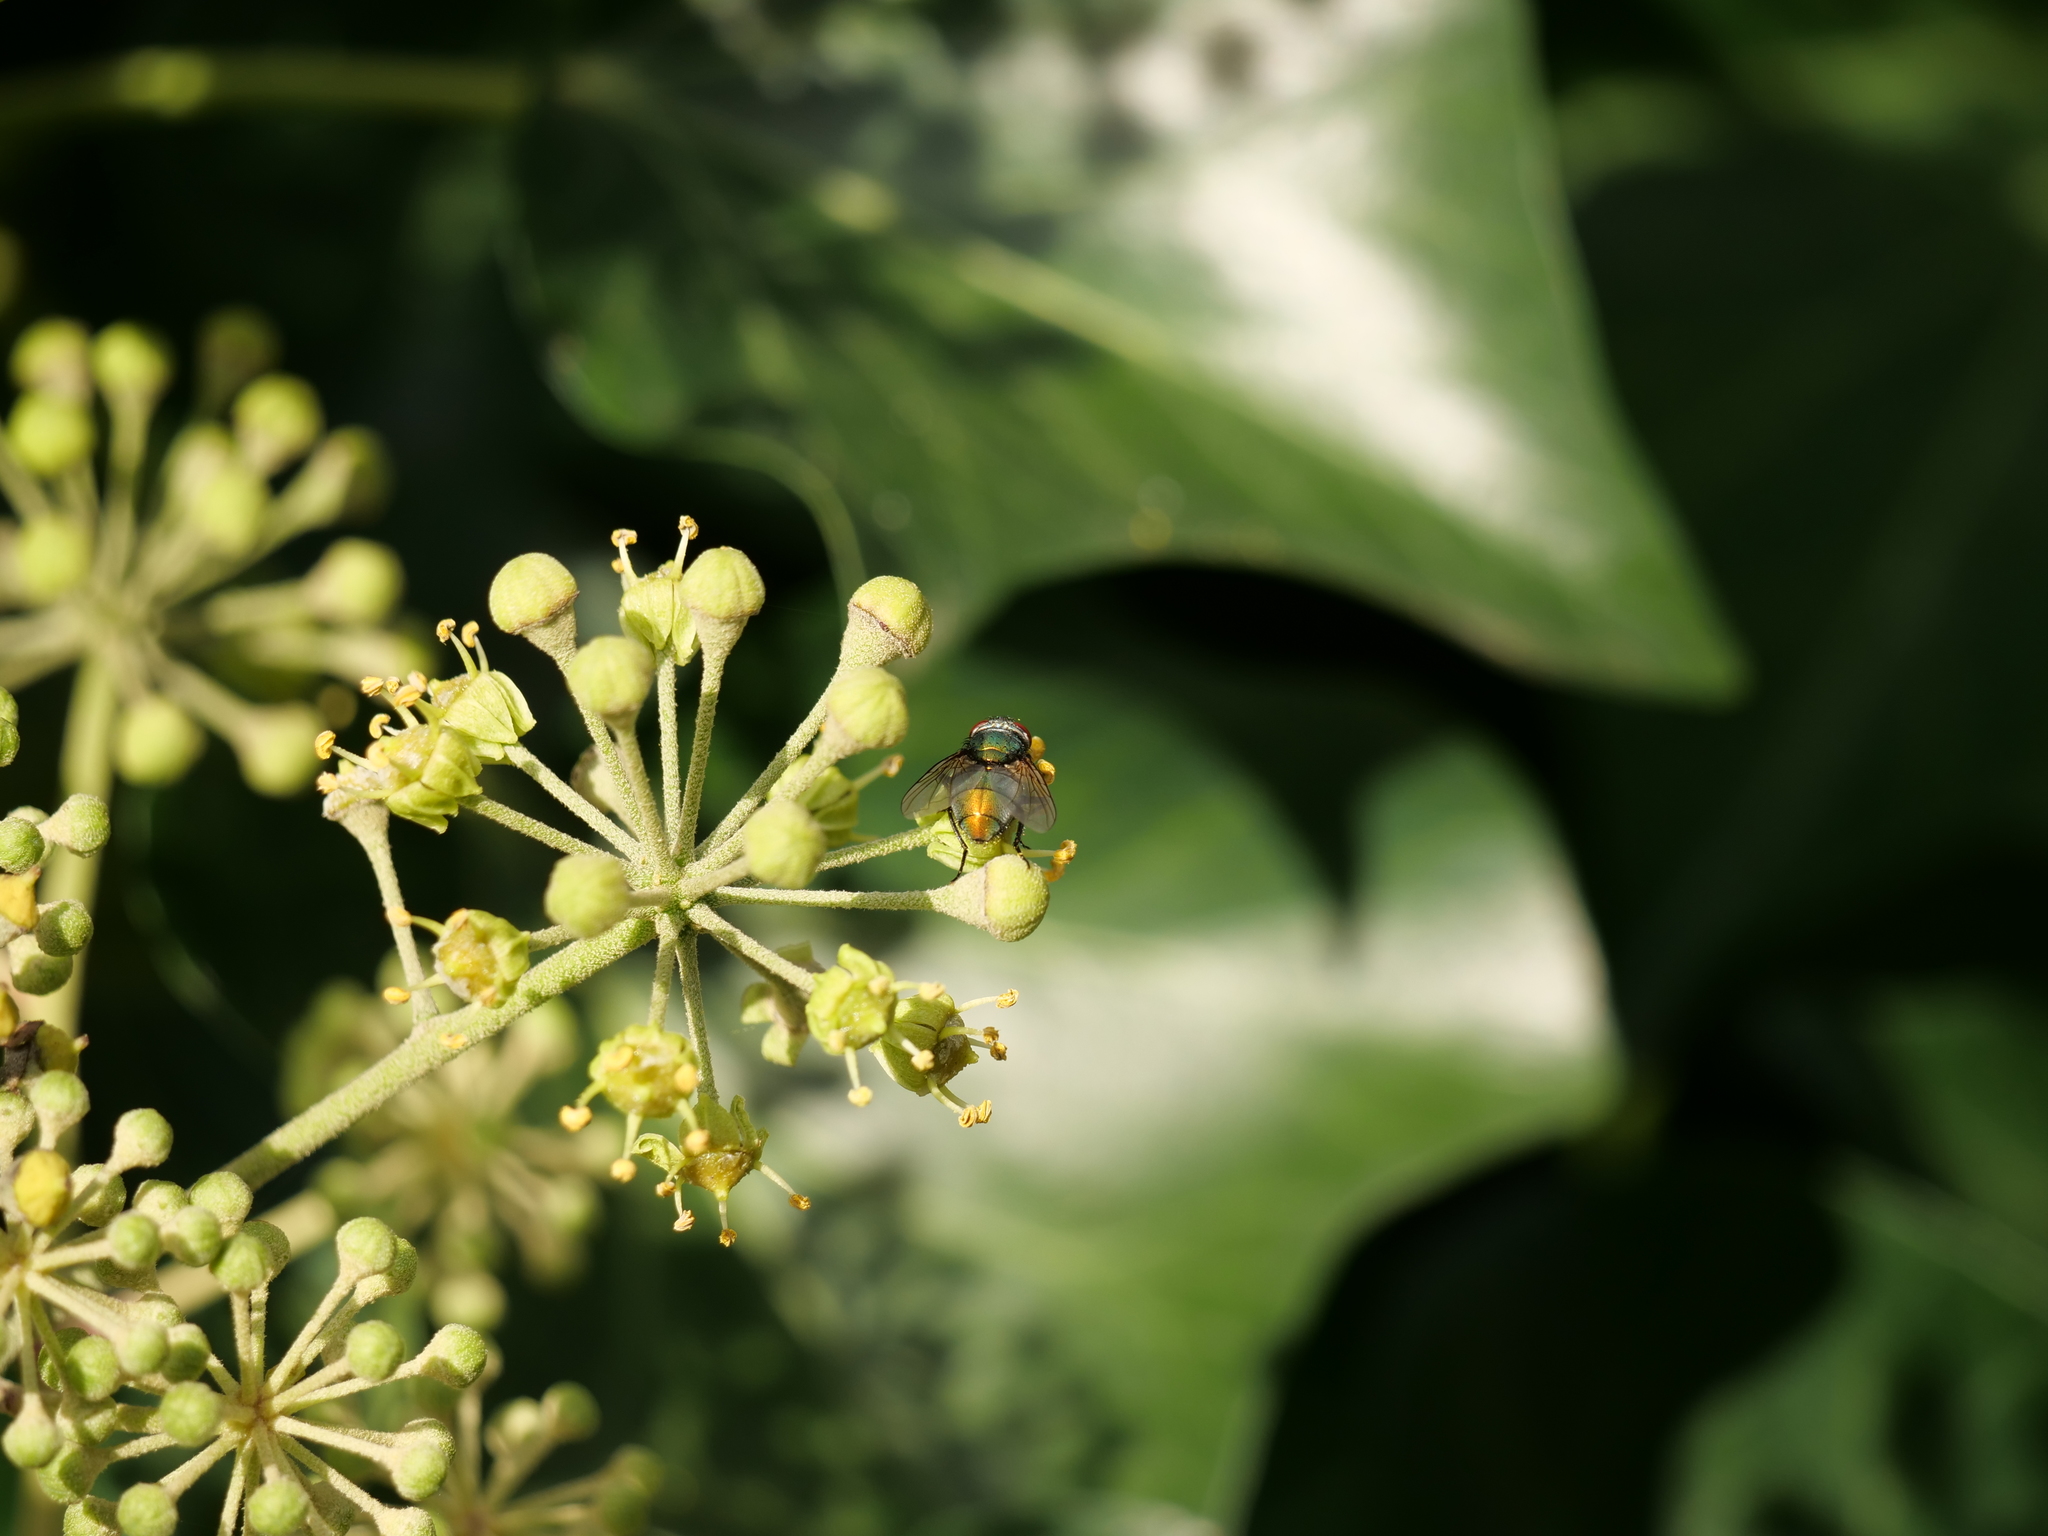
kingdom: Animalia
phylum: Arthropoda
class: Insecta
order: Diptera
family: Calliphoridae
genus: Lucilia
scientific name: Lucilia
